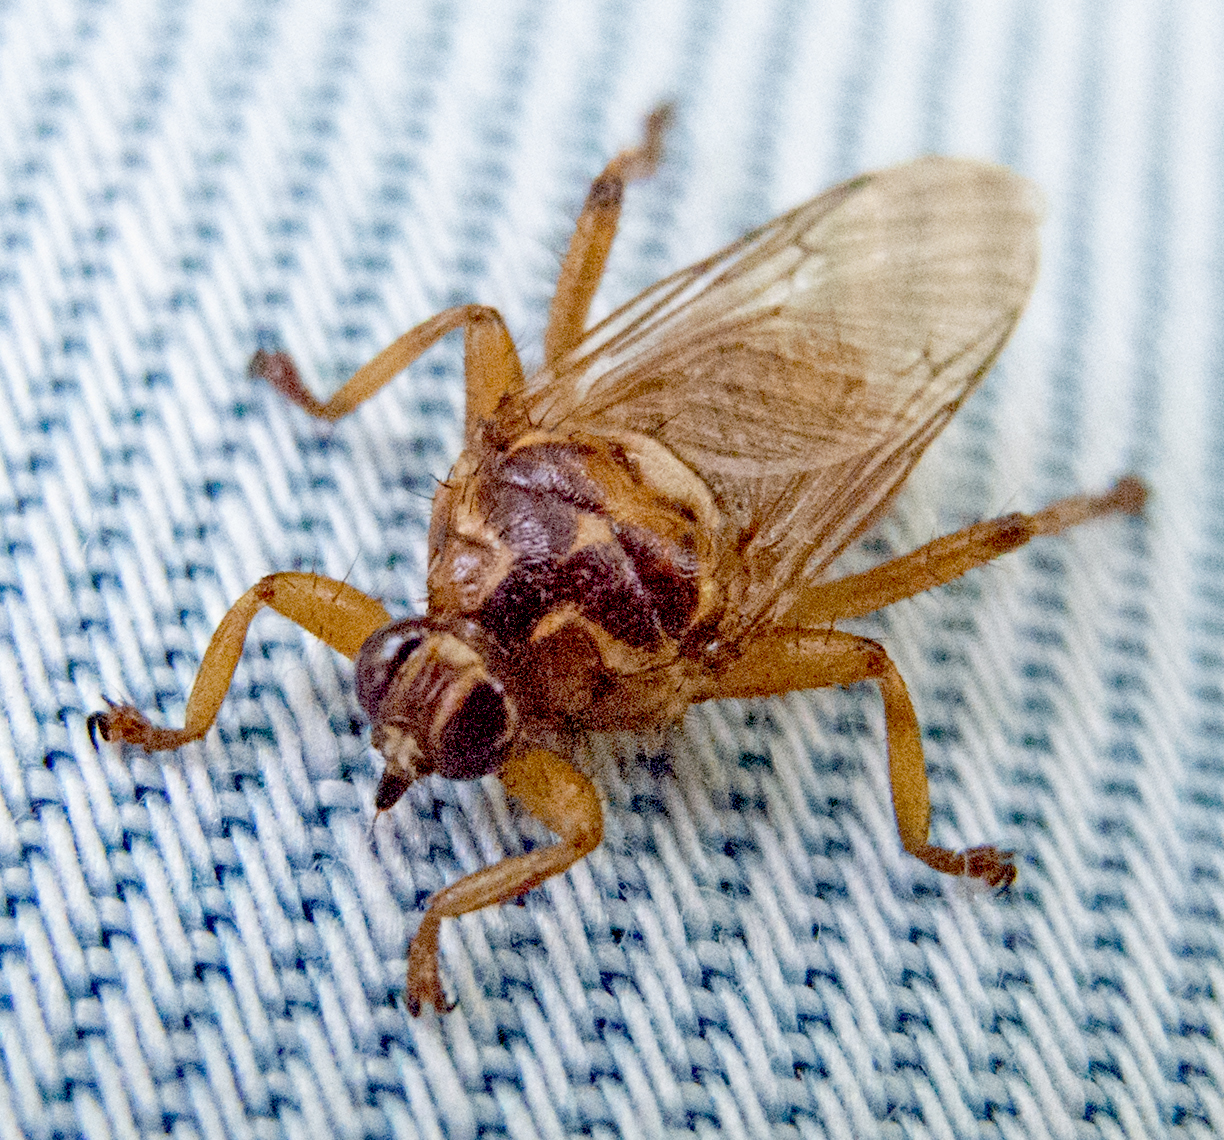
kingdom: Animalia
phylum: Arthropoda
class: Insecta
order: Diptera
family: Hippoboscidae
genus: Hippobosca
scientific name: Hippobosca equina
